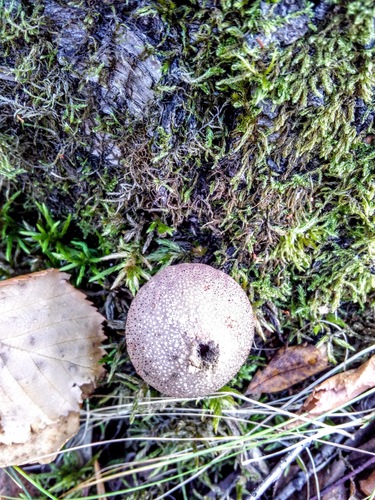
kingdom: Fungi
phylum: Basidiomycota
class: Agaricomycetes
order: Agaricales
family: Lycoperdaceae
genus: Lycoperdon
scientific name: Lycoperdon nigrescens
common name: Blackish puffball
